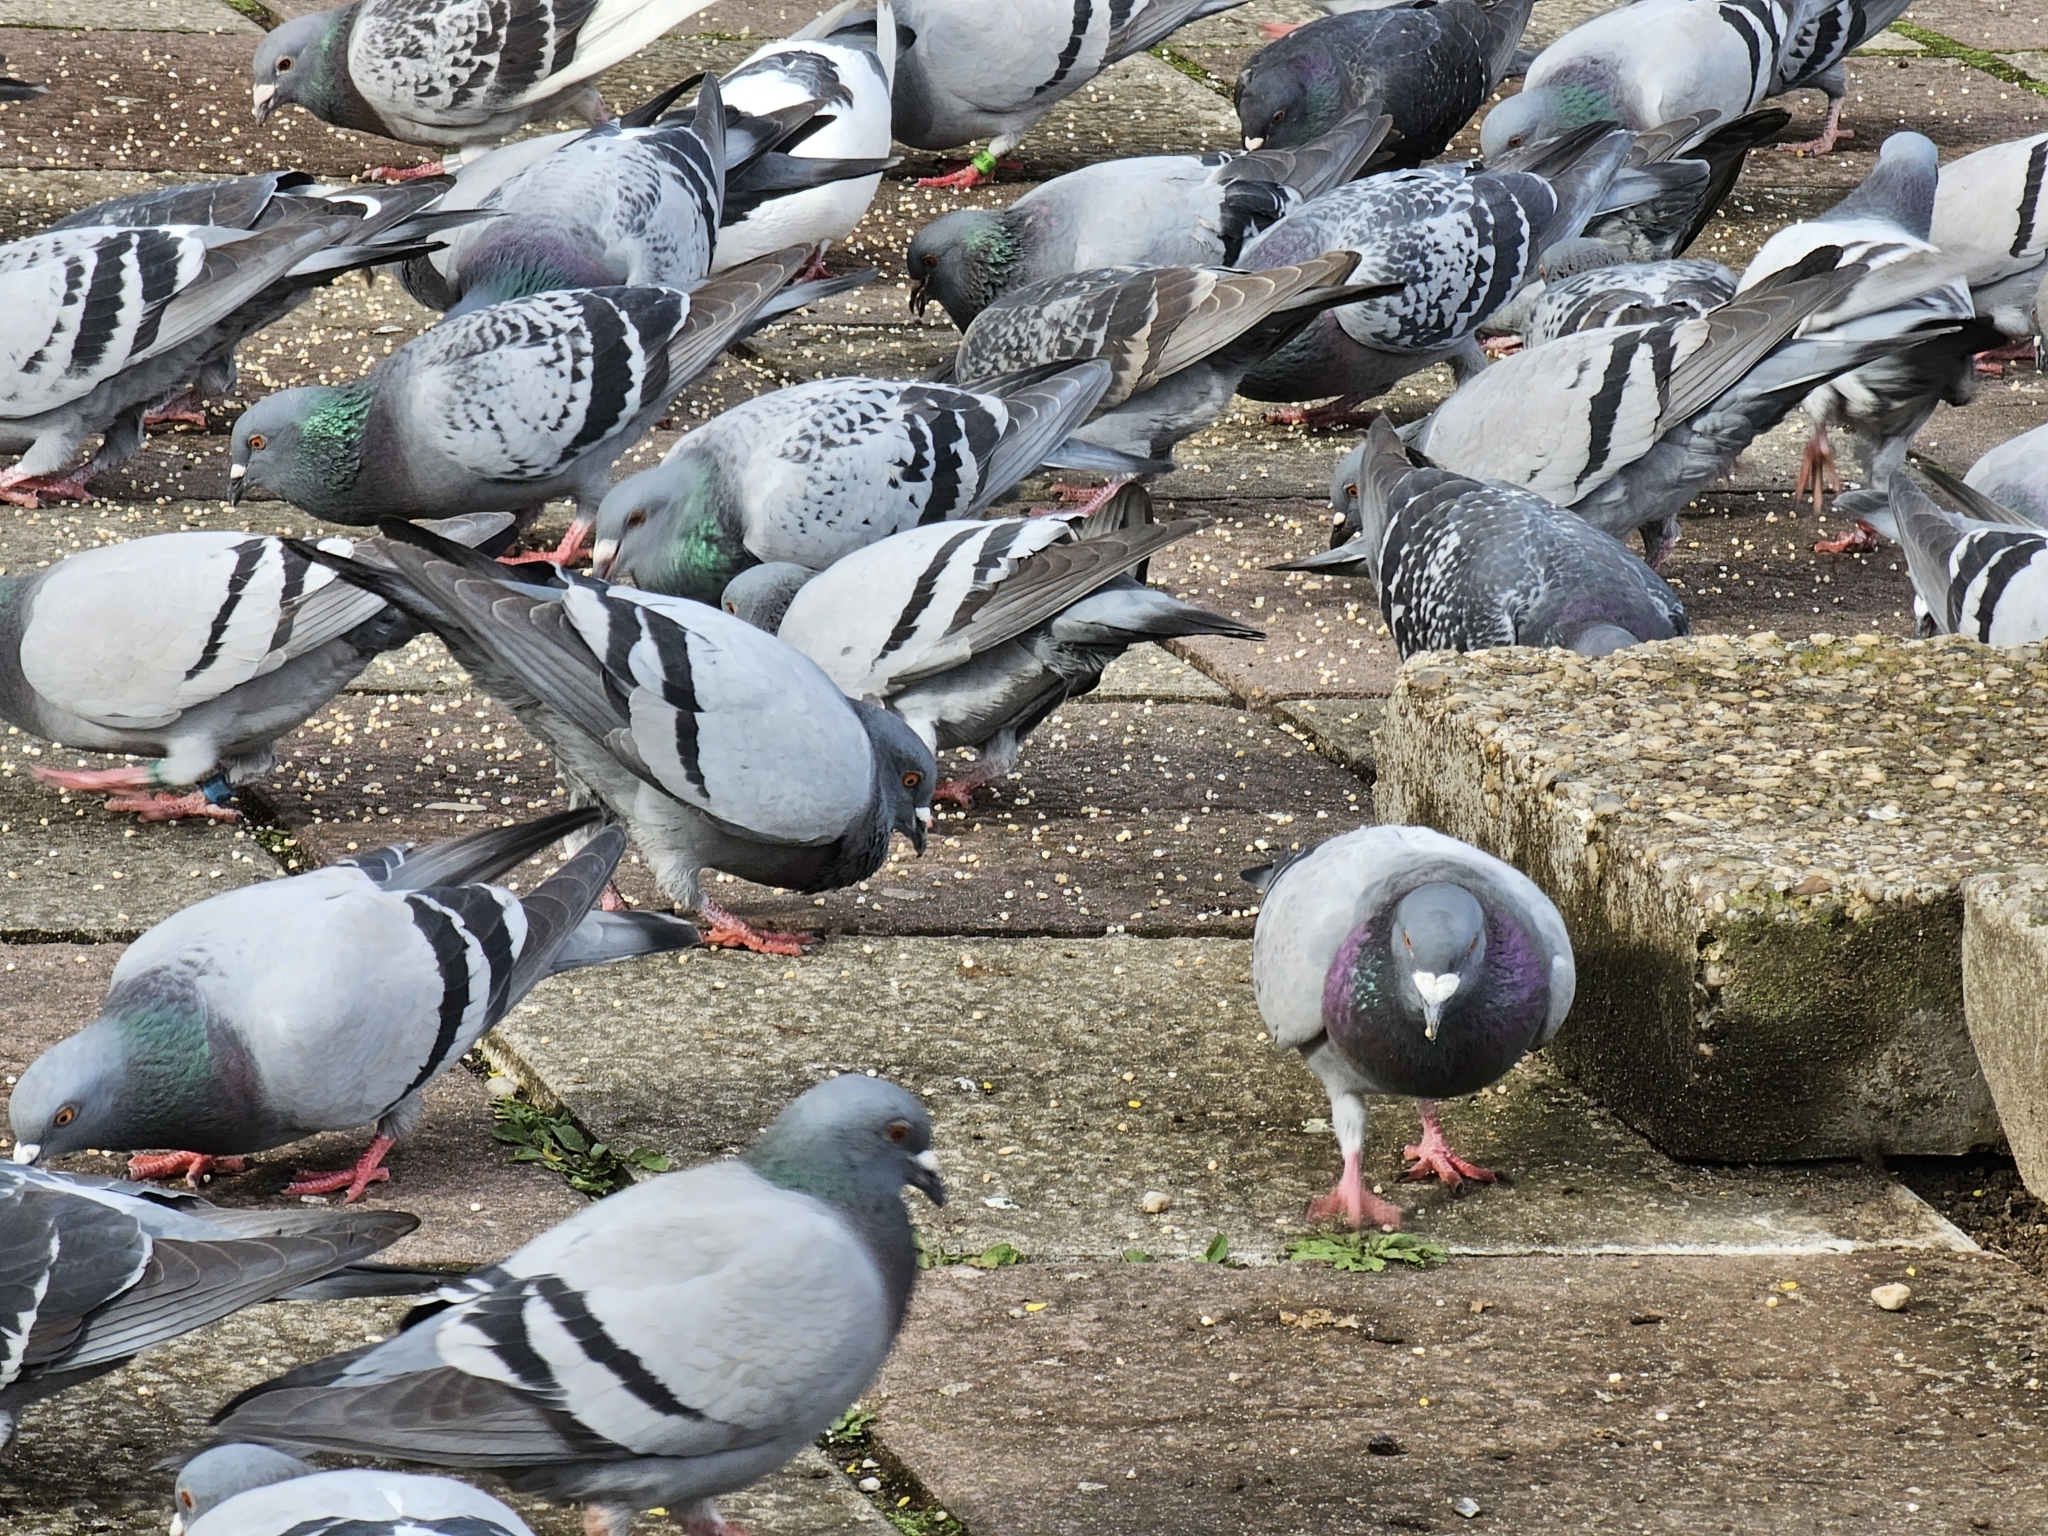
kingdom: Animalia
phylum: Chordata
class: Aves
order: Columbiformes
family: Columbidae
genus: Columba
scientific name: Columba livia
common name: Rock pigeon
